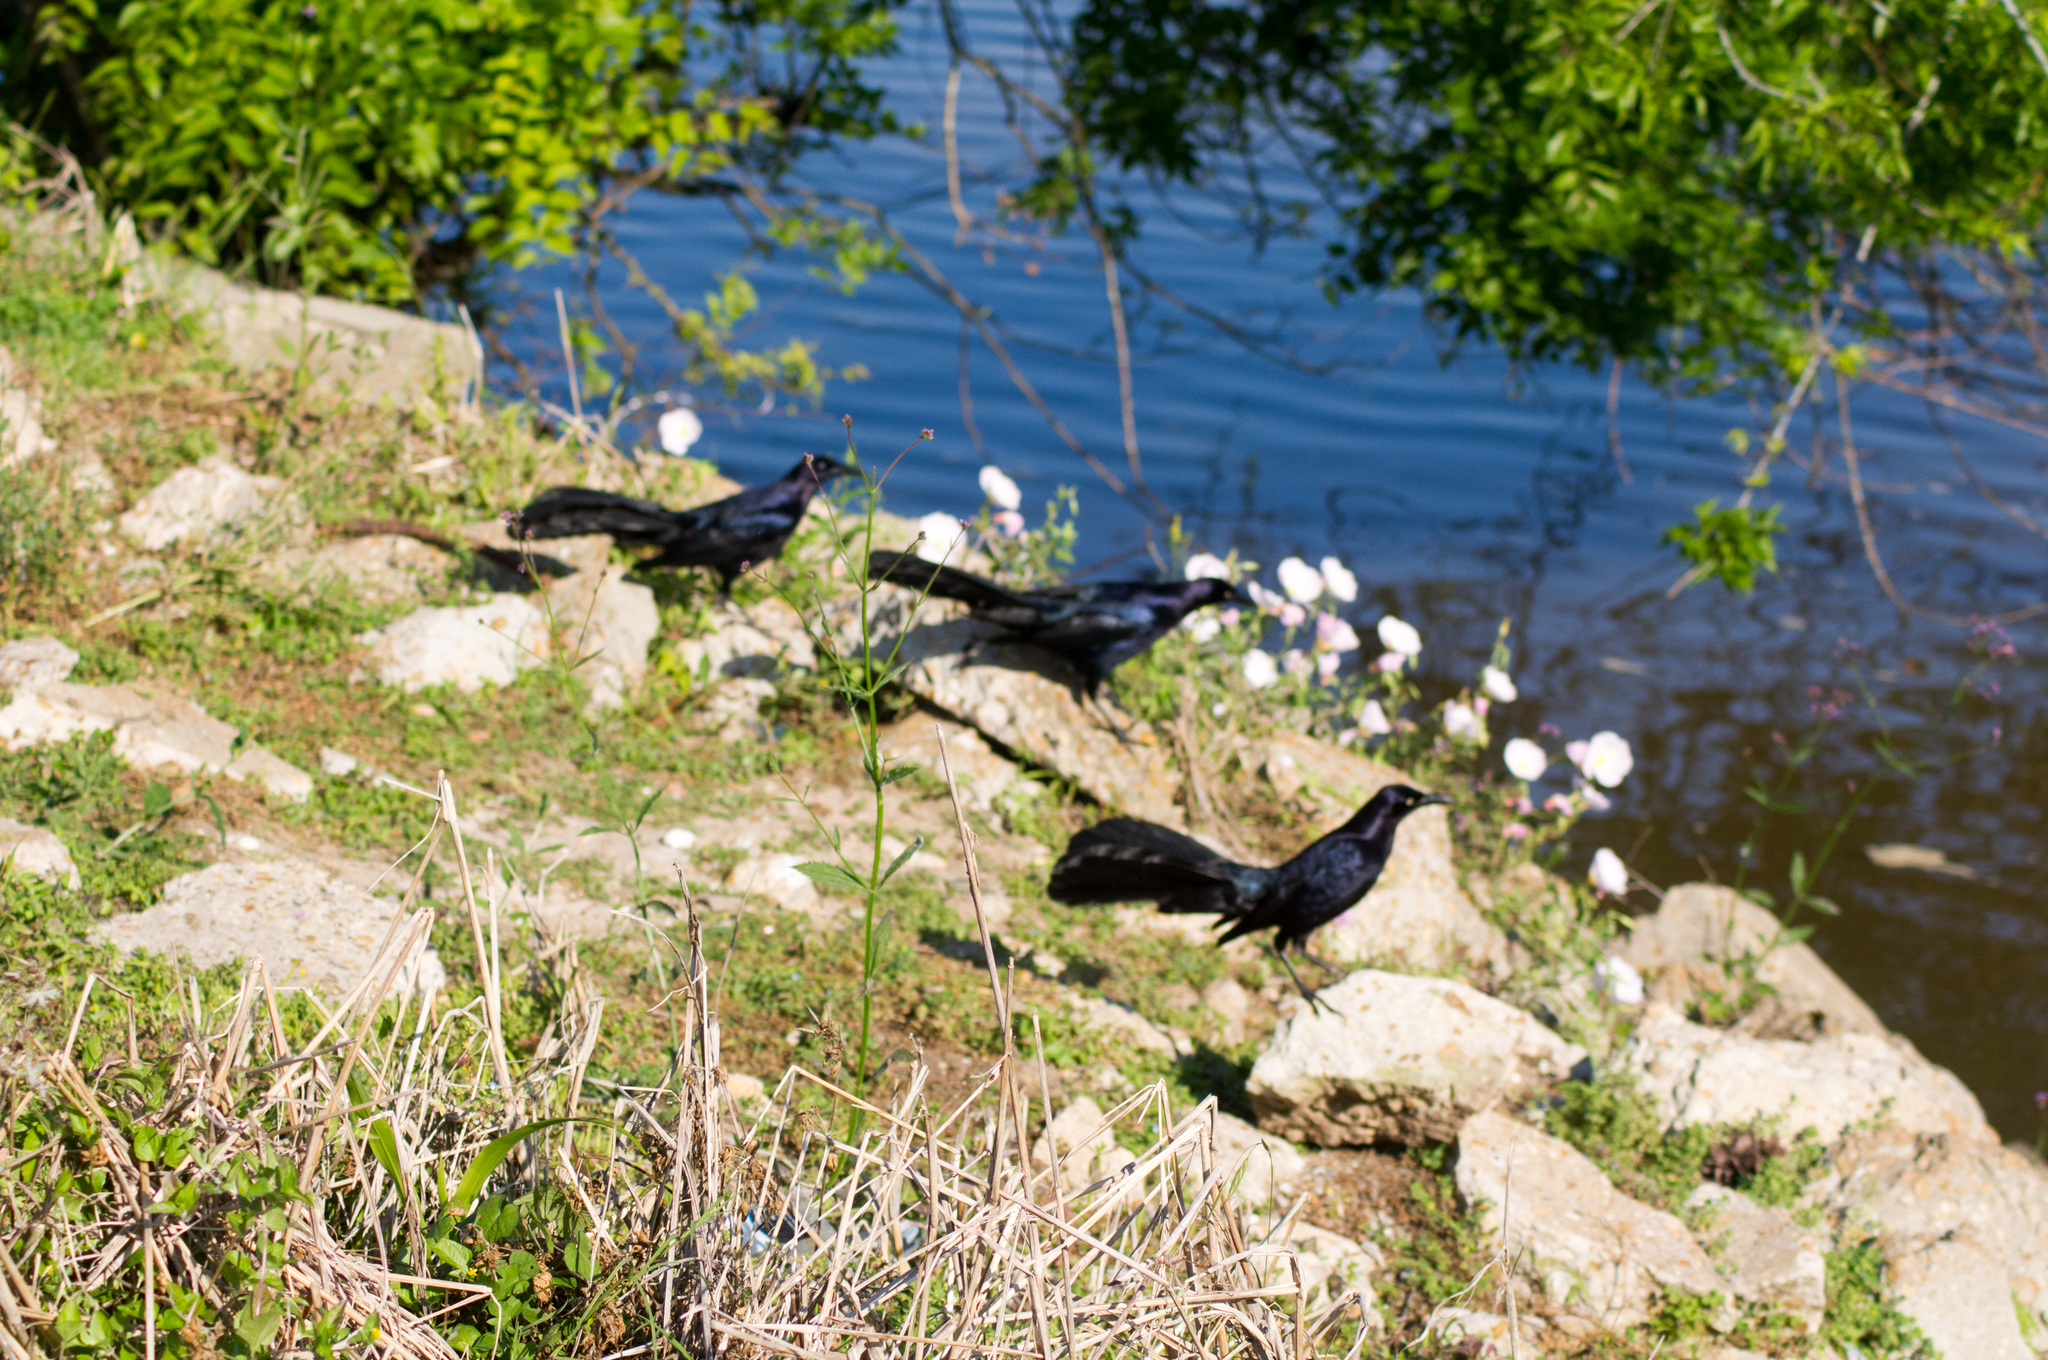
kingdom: Animalia
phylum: Chordata
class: Aves
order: Passeriformes
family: Icteridae
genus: Quiscalus
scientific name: Quiscalus mexicanus
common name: Great-tailed grackle
